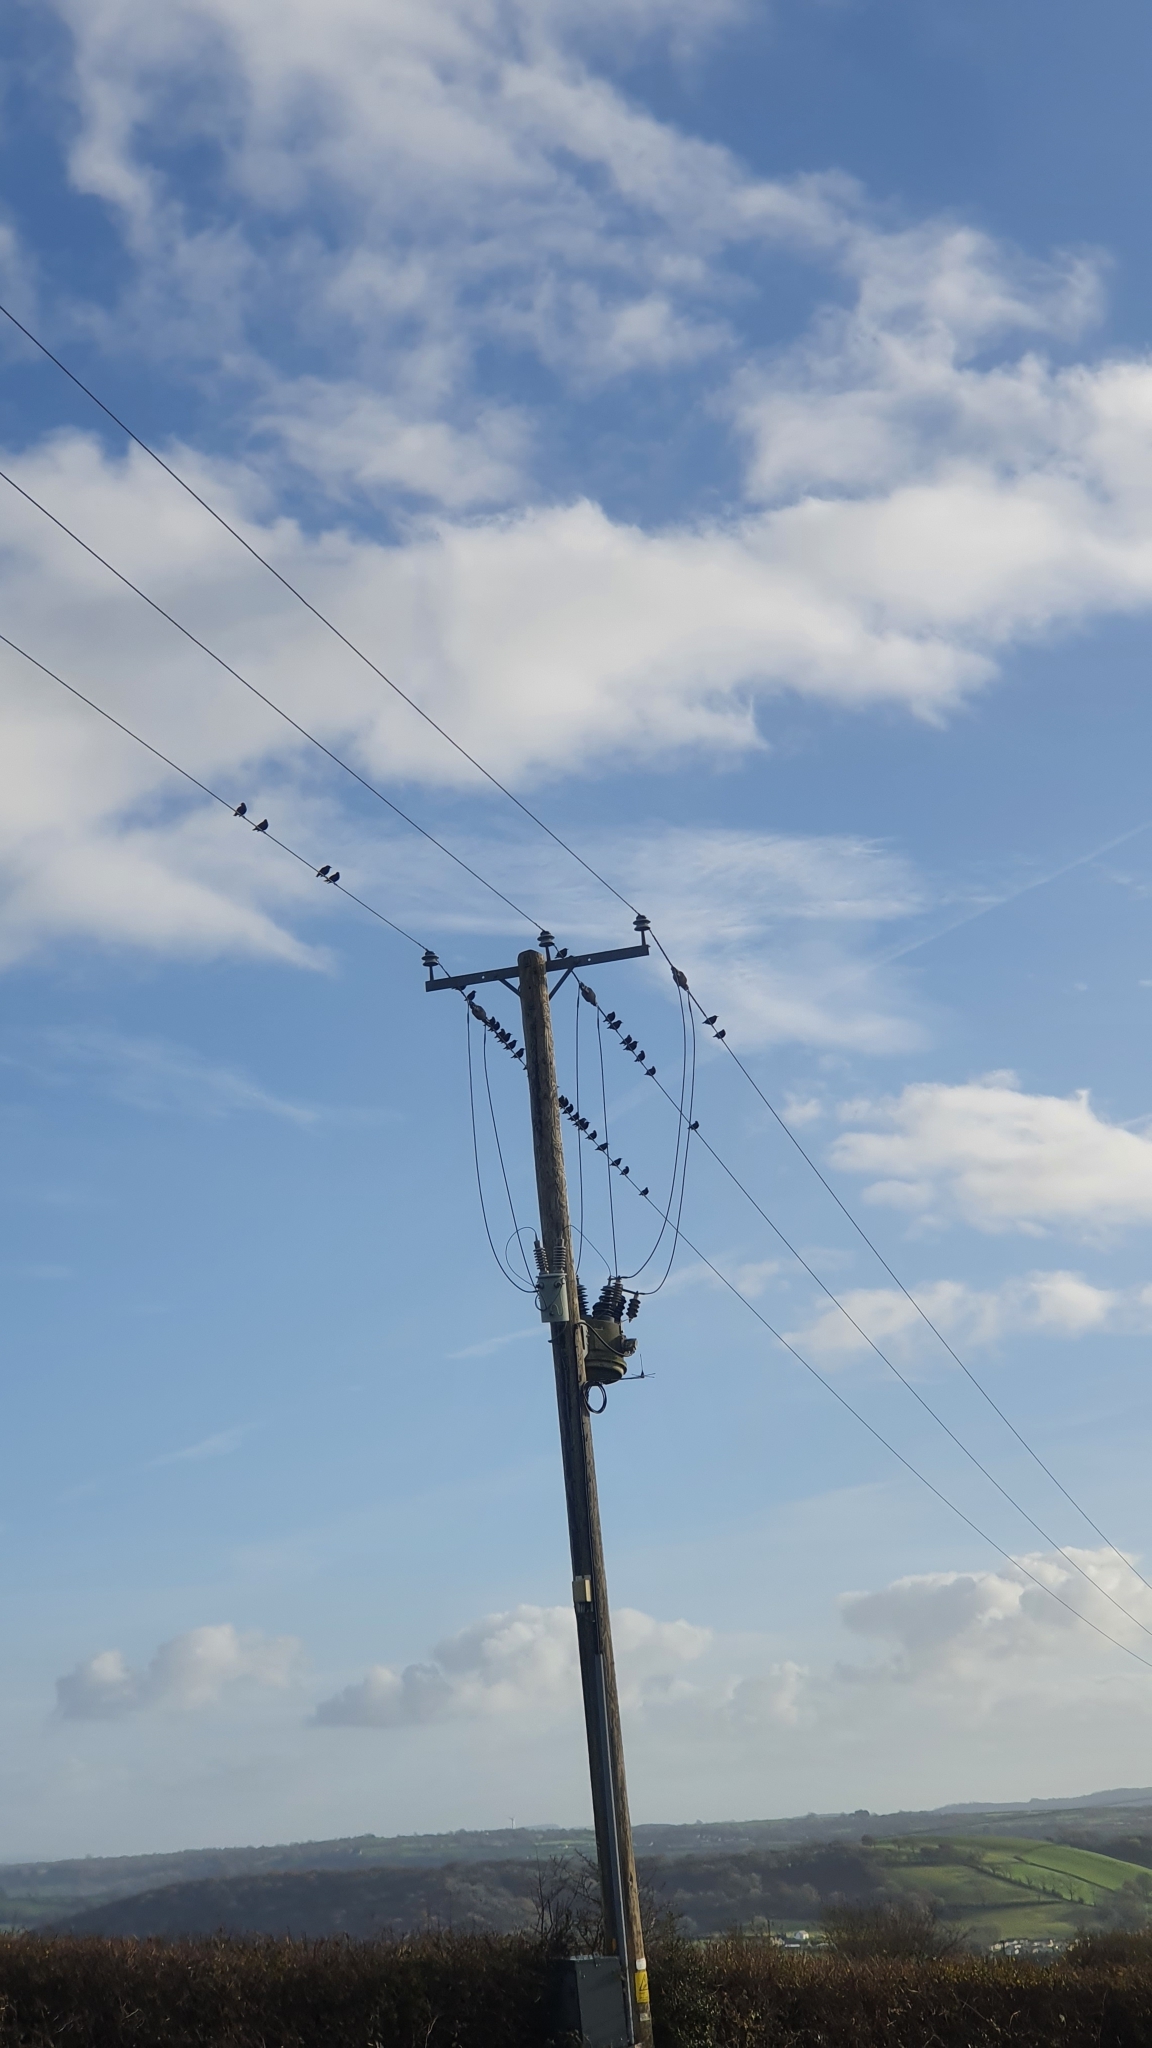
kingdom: Animalia
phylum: Chordata
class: Aves
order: Passeriformes
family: Sturnidae
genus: Sturnus
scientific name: Sturnus vulgaris
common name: Common starling
